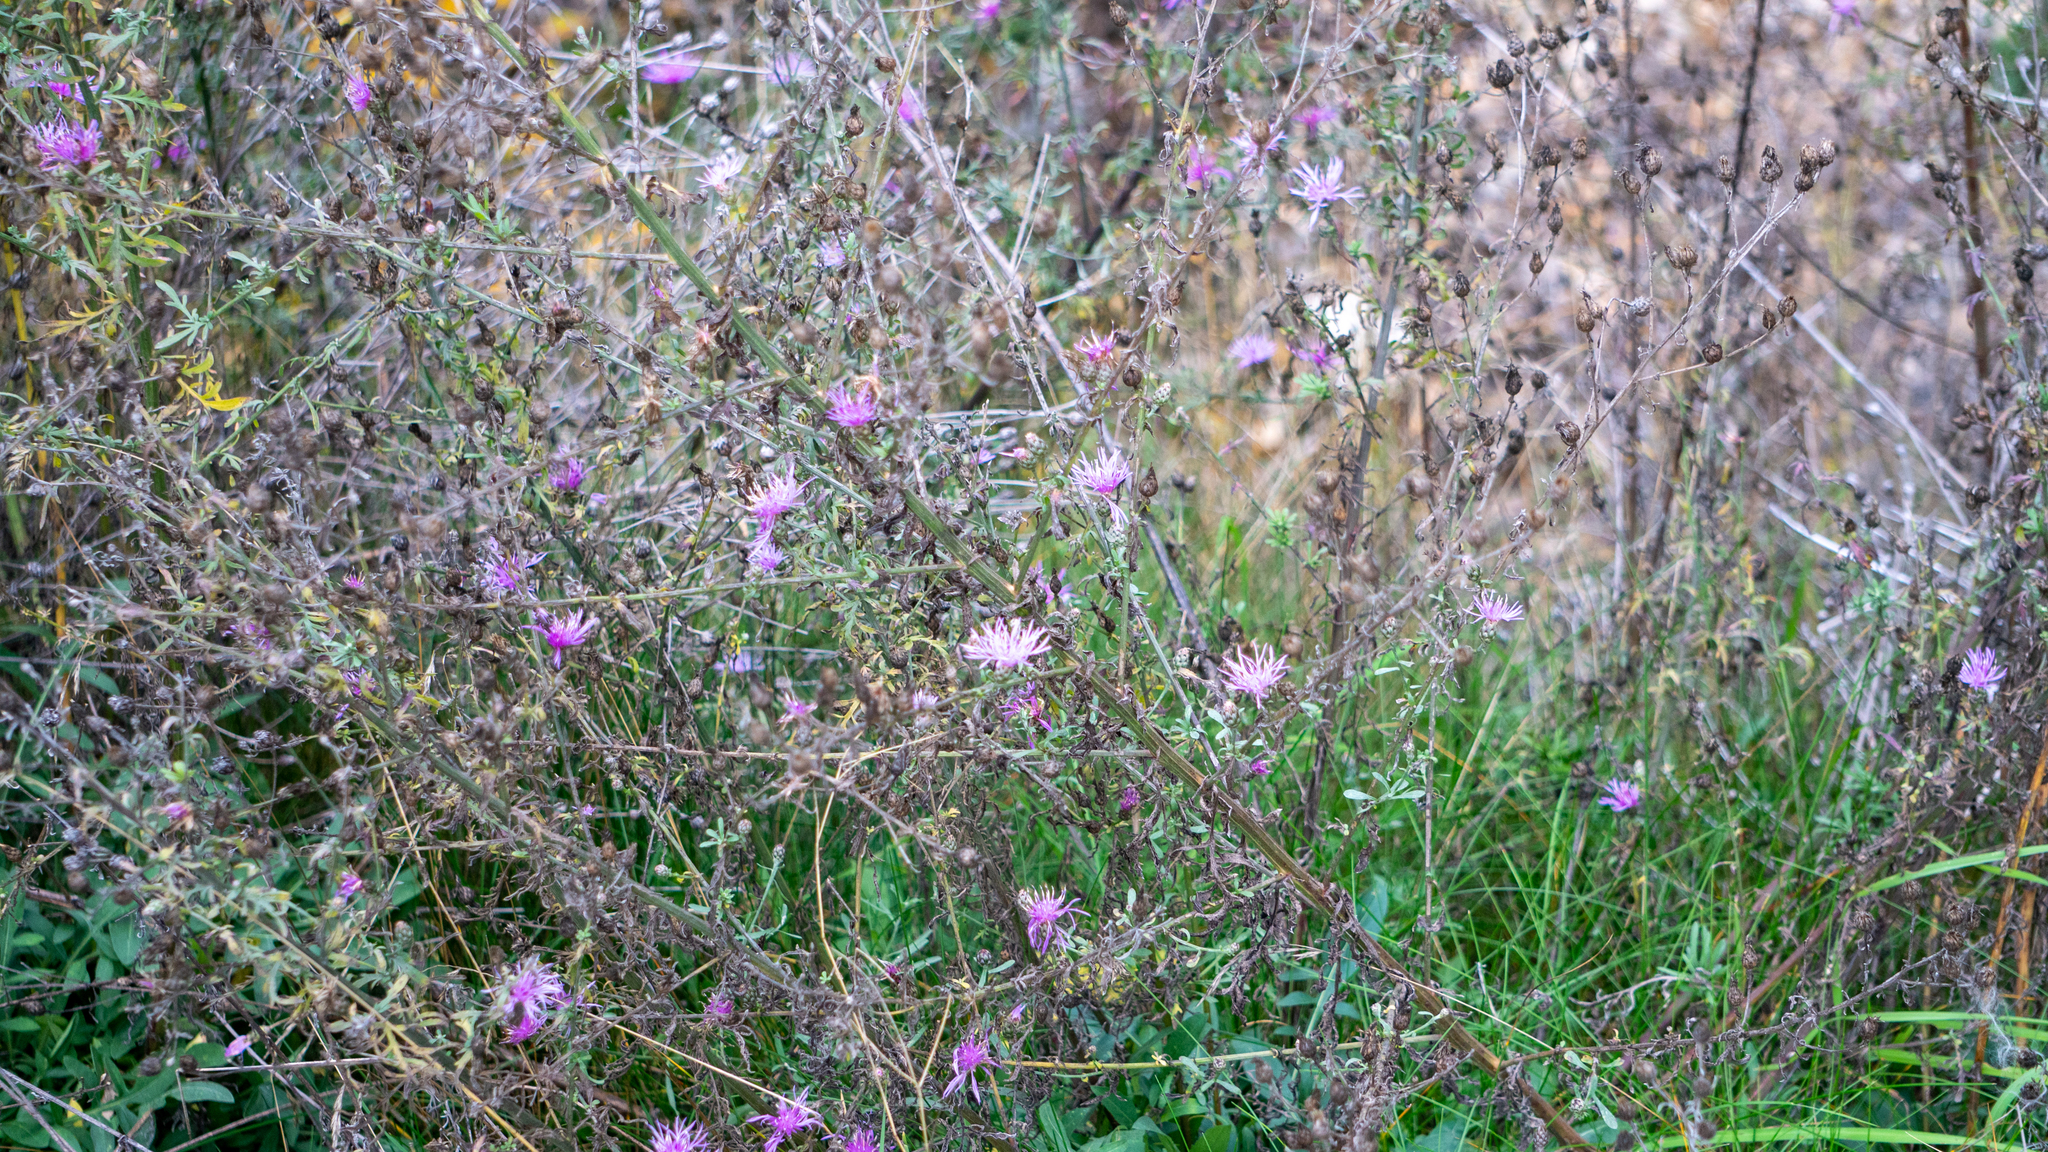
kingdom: Plantae
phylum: Tracheophyta
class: Magnoliopsida
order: Asterales
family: Asteraceae
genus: Centaurea
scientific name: Centaurea stoebe
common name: Spotted knapweed
